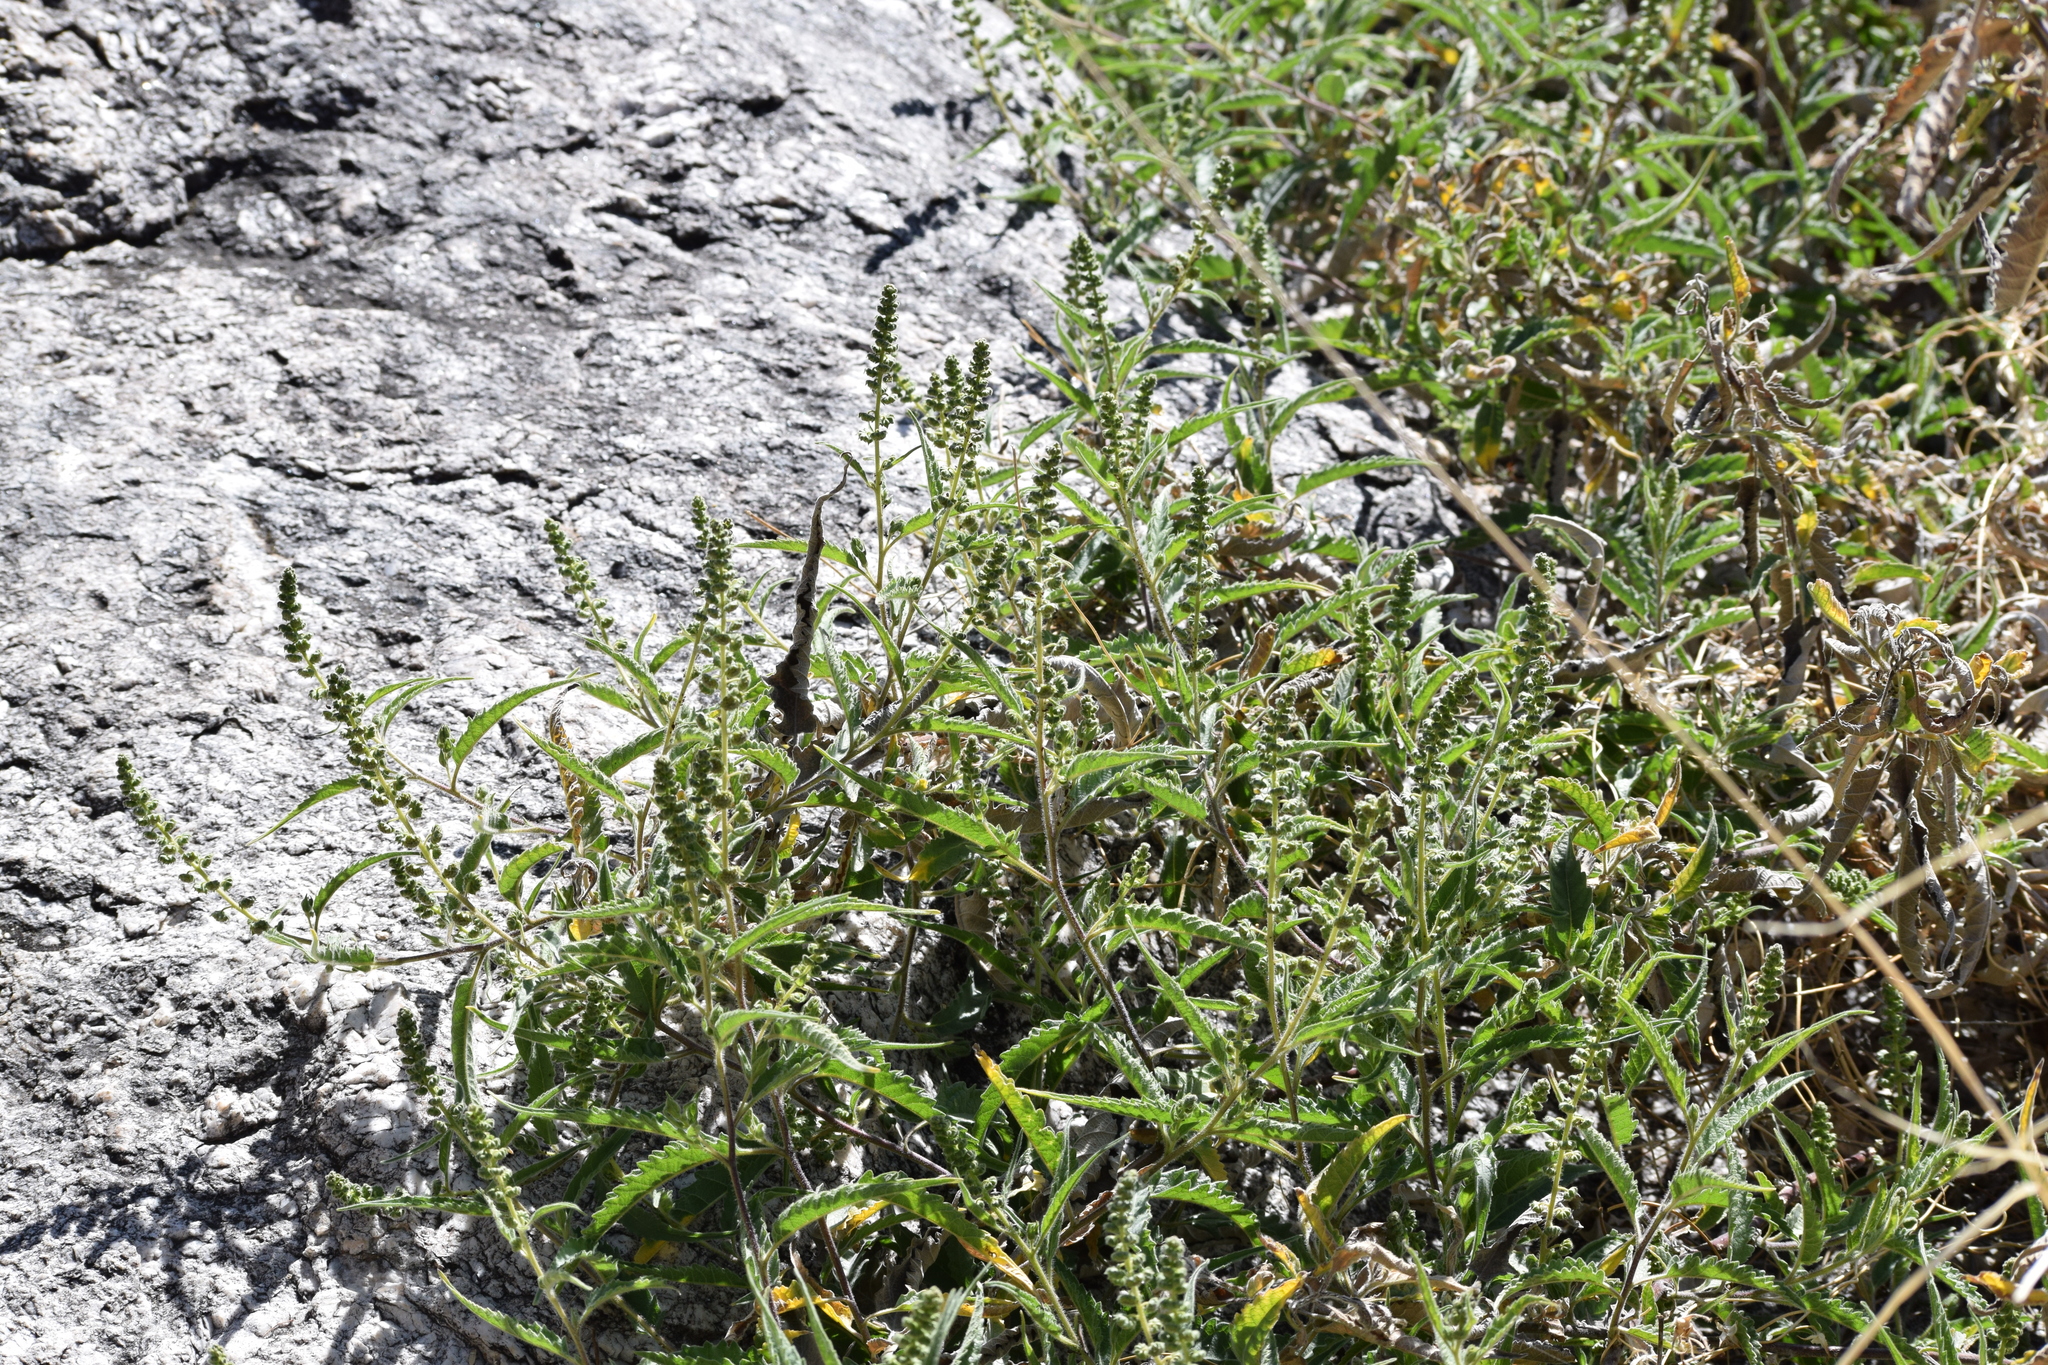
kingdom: Plantae
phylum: Tracheophyta
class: Magnoliopsida
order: Asterales
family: Asteraceae
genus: Ambrosia
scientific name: Ambrosia ambrosioides
